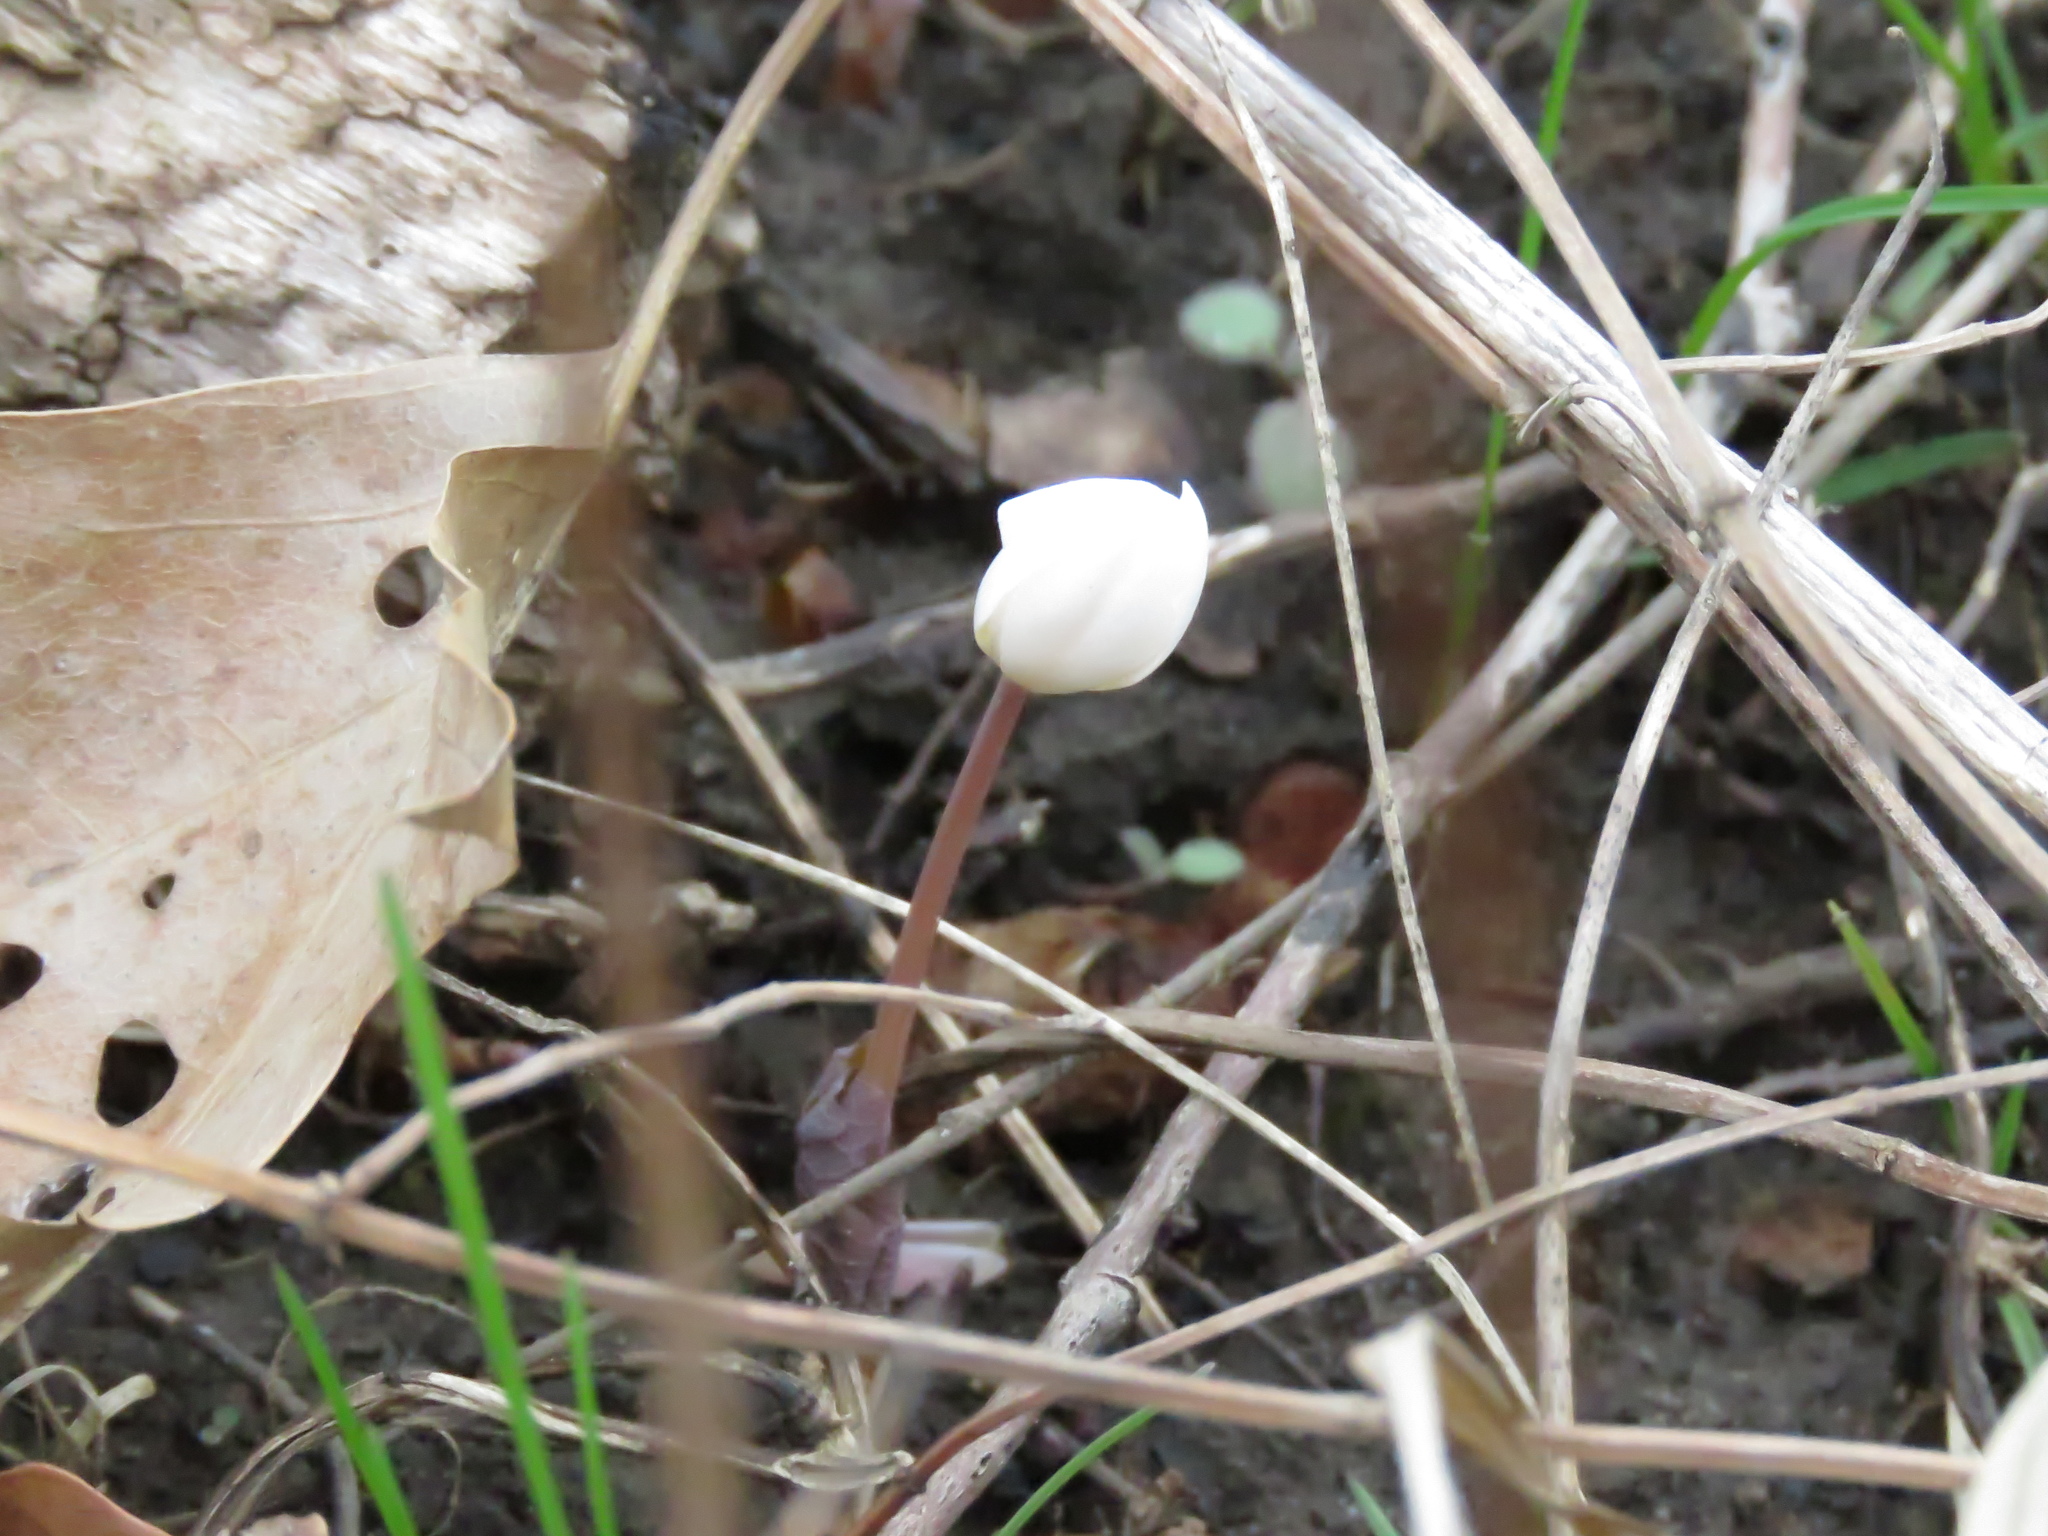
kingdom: Plantae
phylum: Tracheophyta
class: Magnoliopsida
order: Ranunculales
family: Papaveraceae
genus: Sanguinaria
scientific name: Sanguinaria canadensis
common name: Bloodroot
